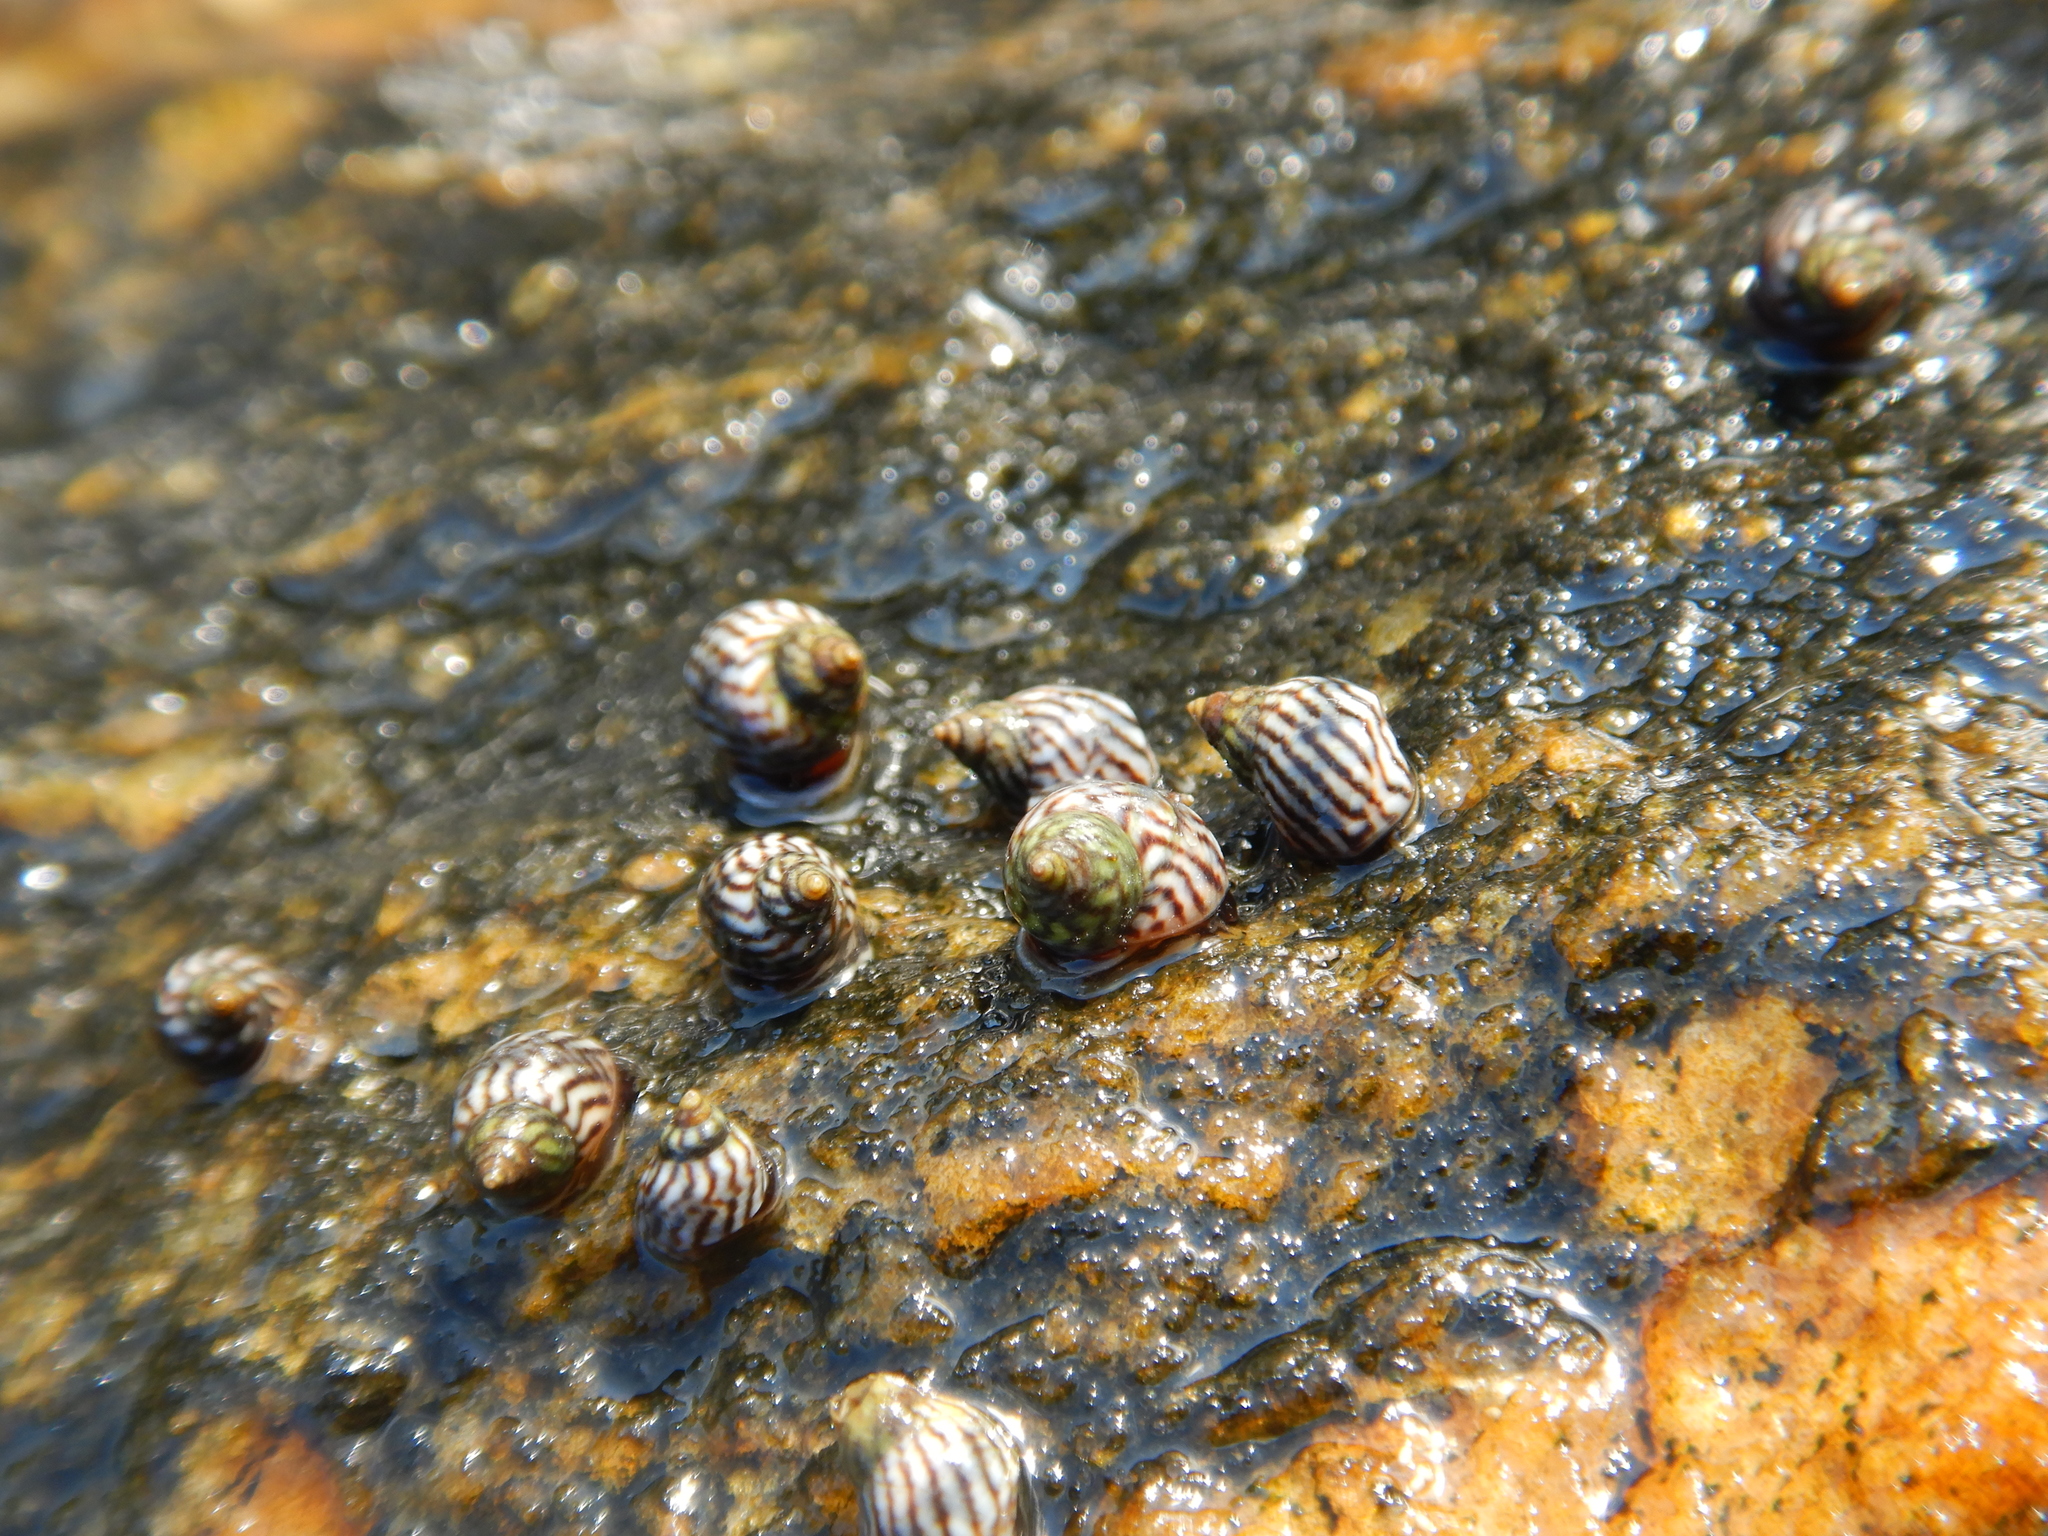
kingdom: Animalia
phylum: Mollusca
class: Gastropoda
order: Littorinimorpha
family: Littorinidae
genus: Echinolittorina
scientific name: Echinolittorina lineolata
